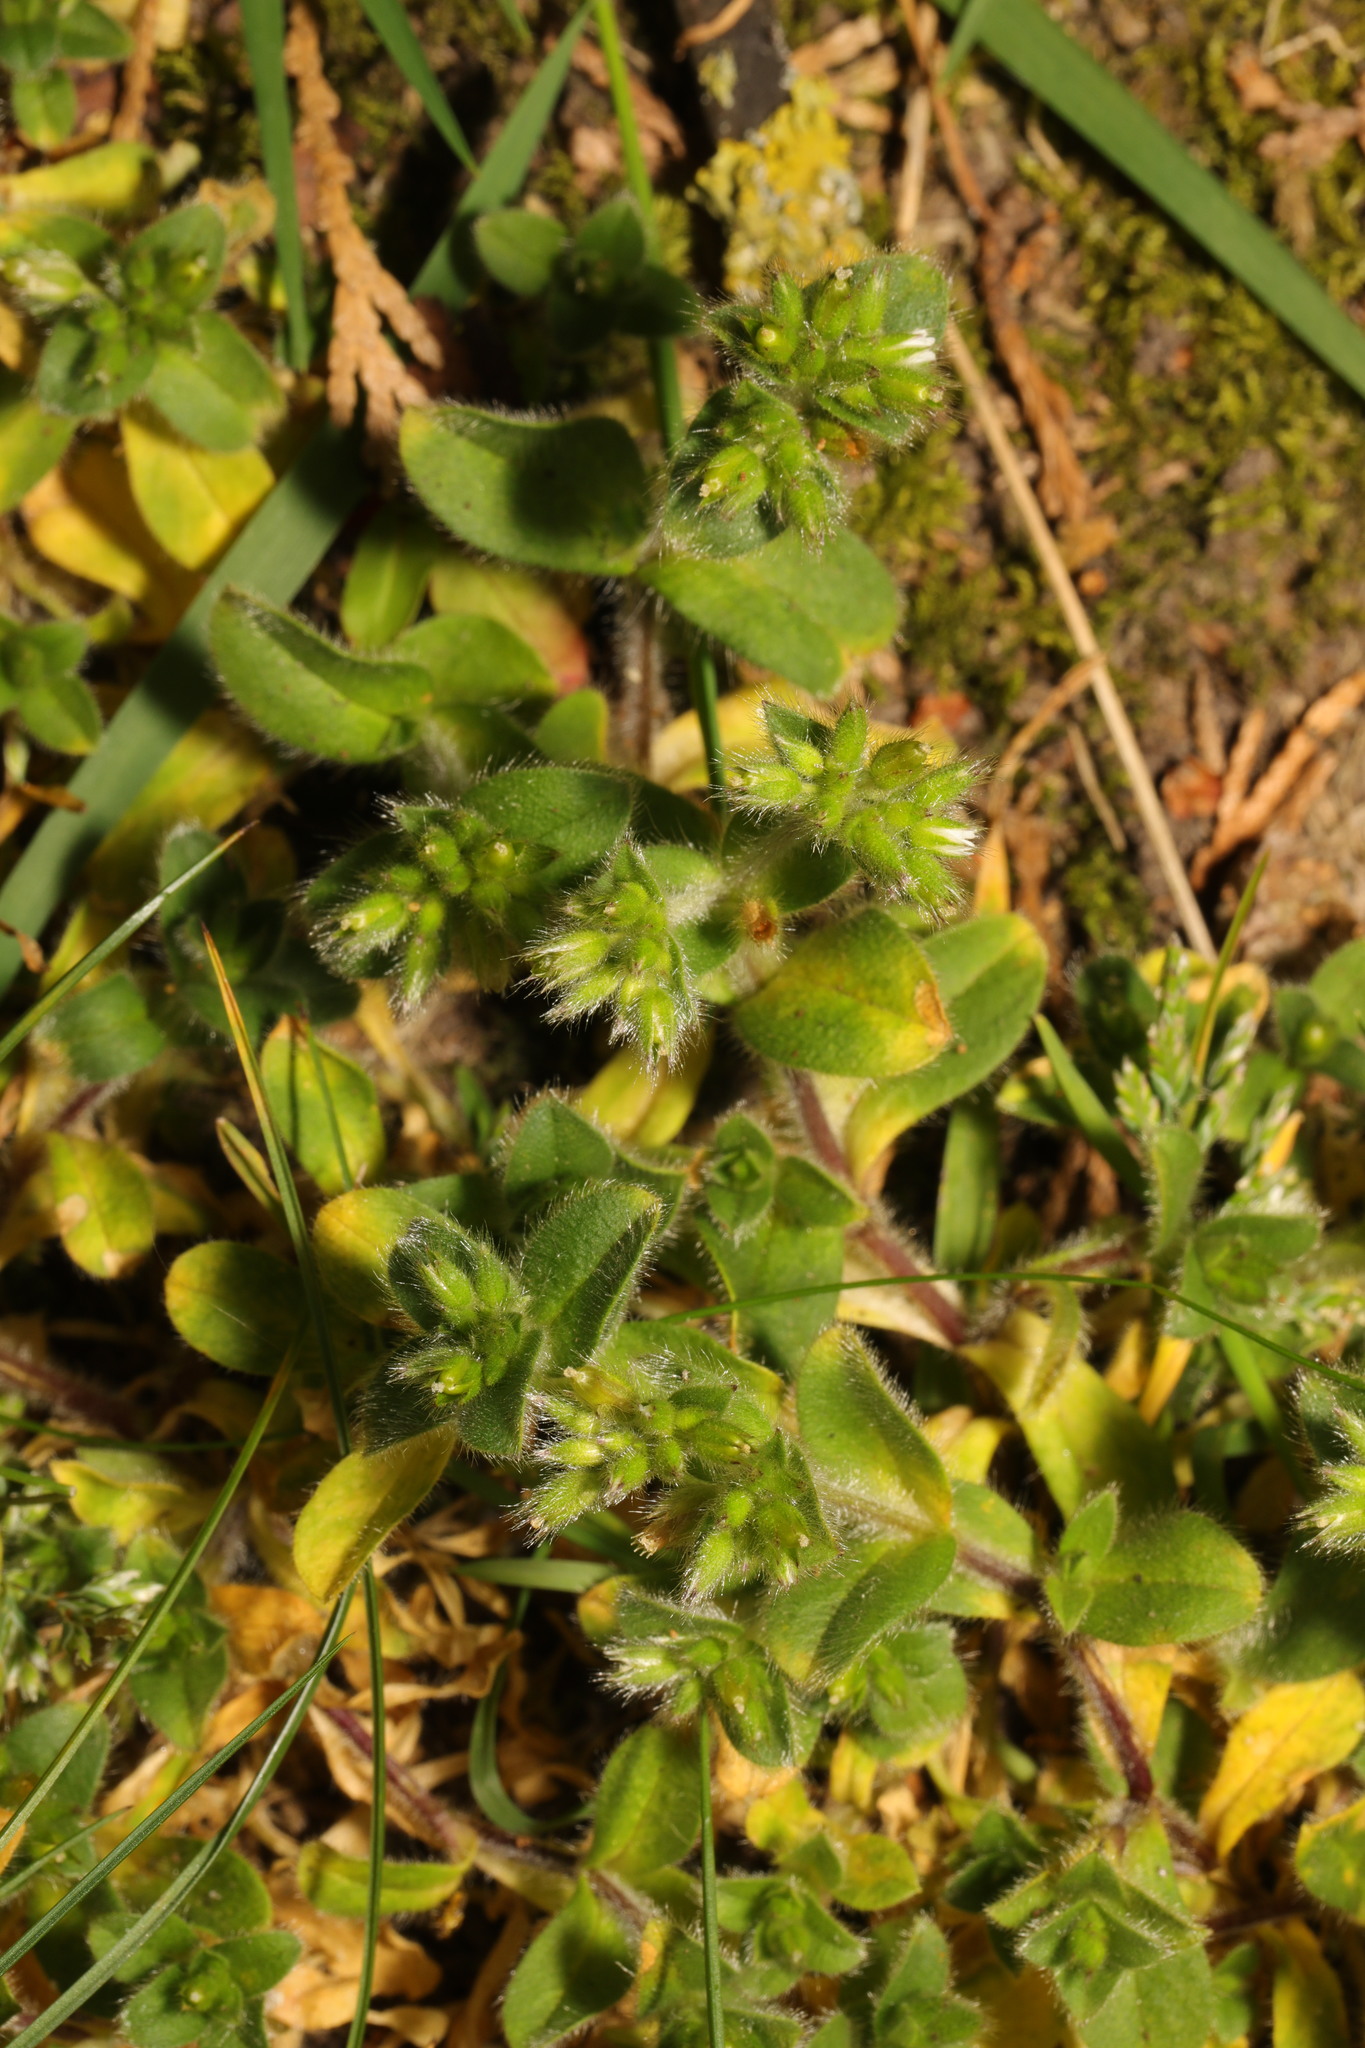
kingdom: Plantae
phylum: Tracheophyta
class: Magnoliopsida
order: Caryophyllales
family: Caryophyllaceae
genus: Cerastium
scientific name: Cerastium glomeratum
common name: Sticky chickweed
